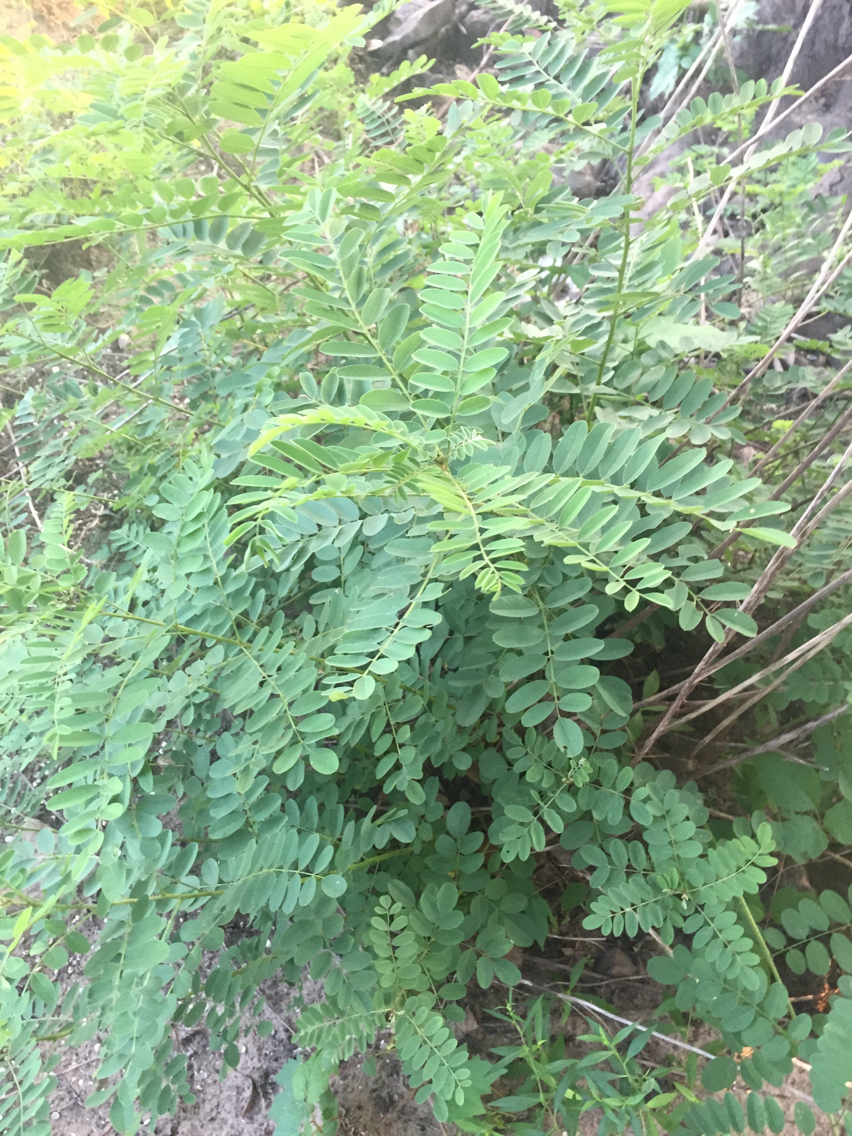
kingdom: Plantae
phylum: Tracheophyta
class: Magnoliopsida
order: Fabales
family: Fabaceae
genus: Amorpha
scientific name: Amorpha fruticosa
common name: False indigo
